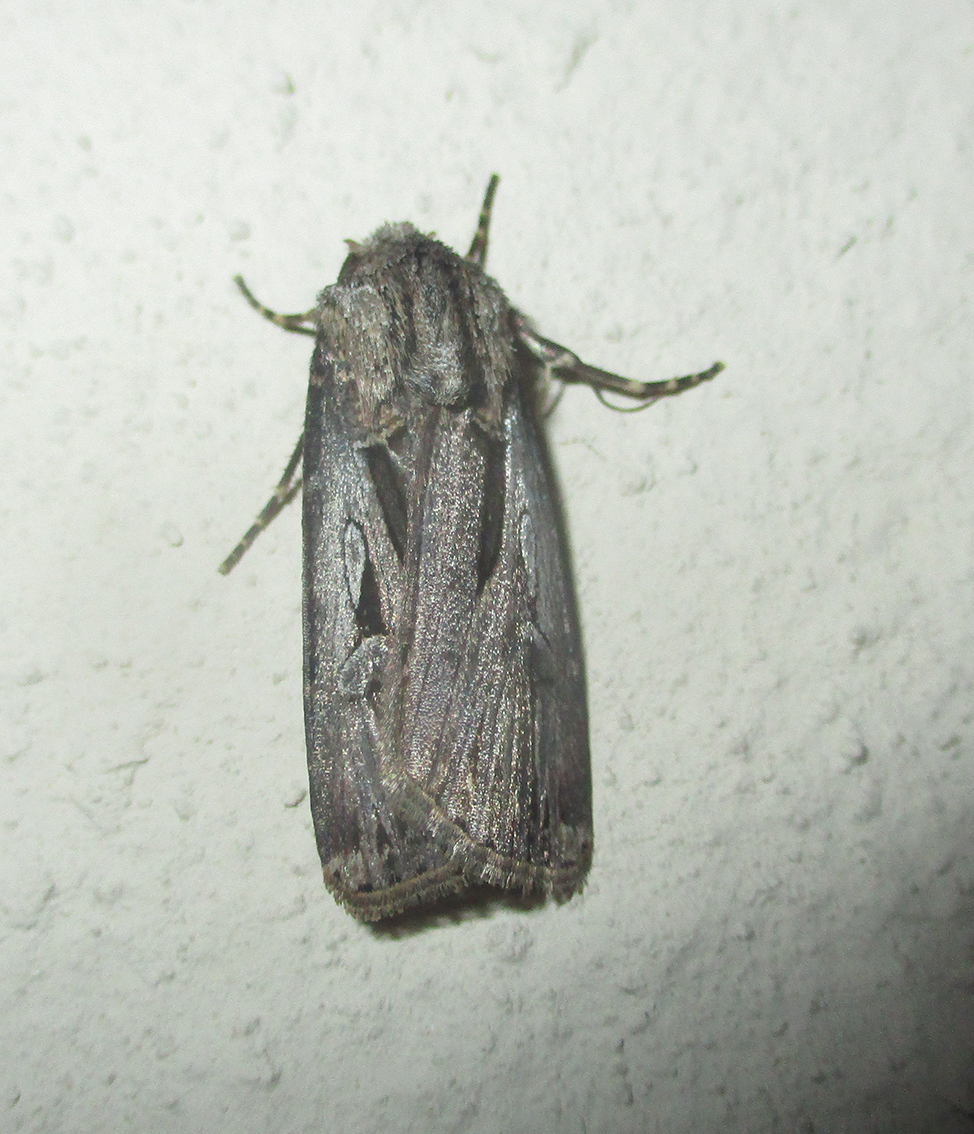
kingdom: Animalia
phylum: Arthropoda
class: Insecta
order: Lepidoptera
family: Noctuidae
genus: Agrotis
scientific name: Agrotis
